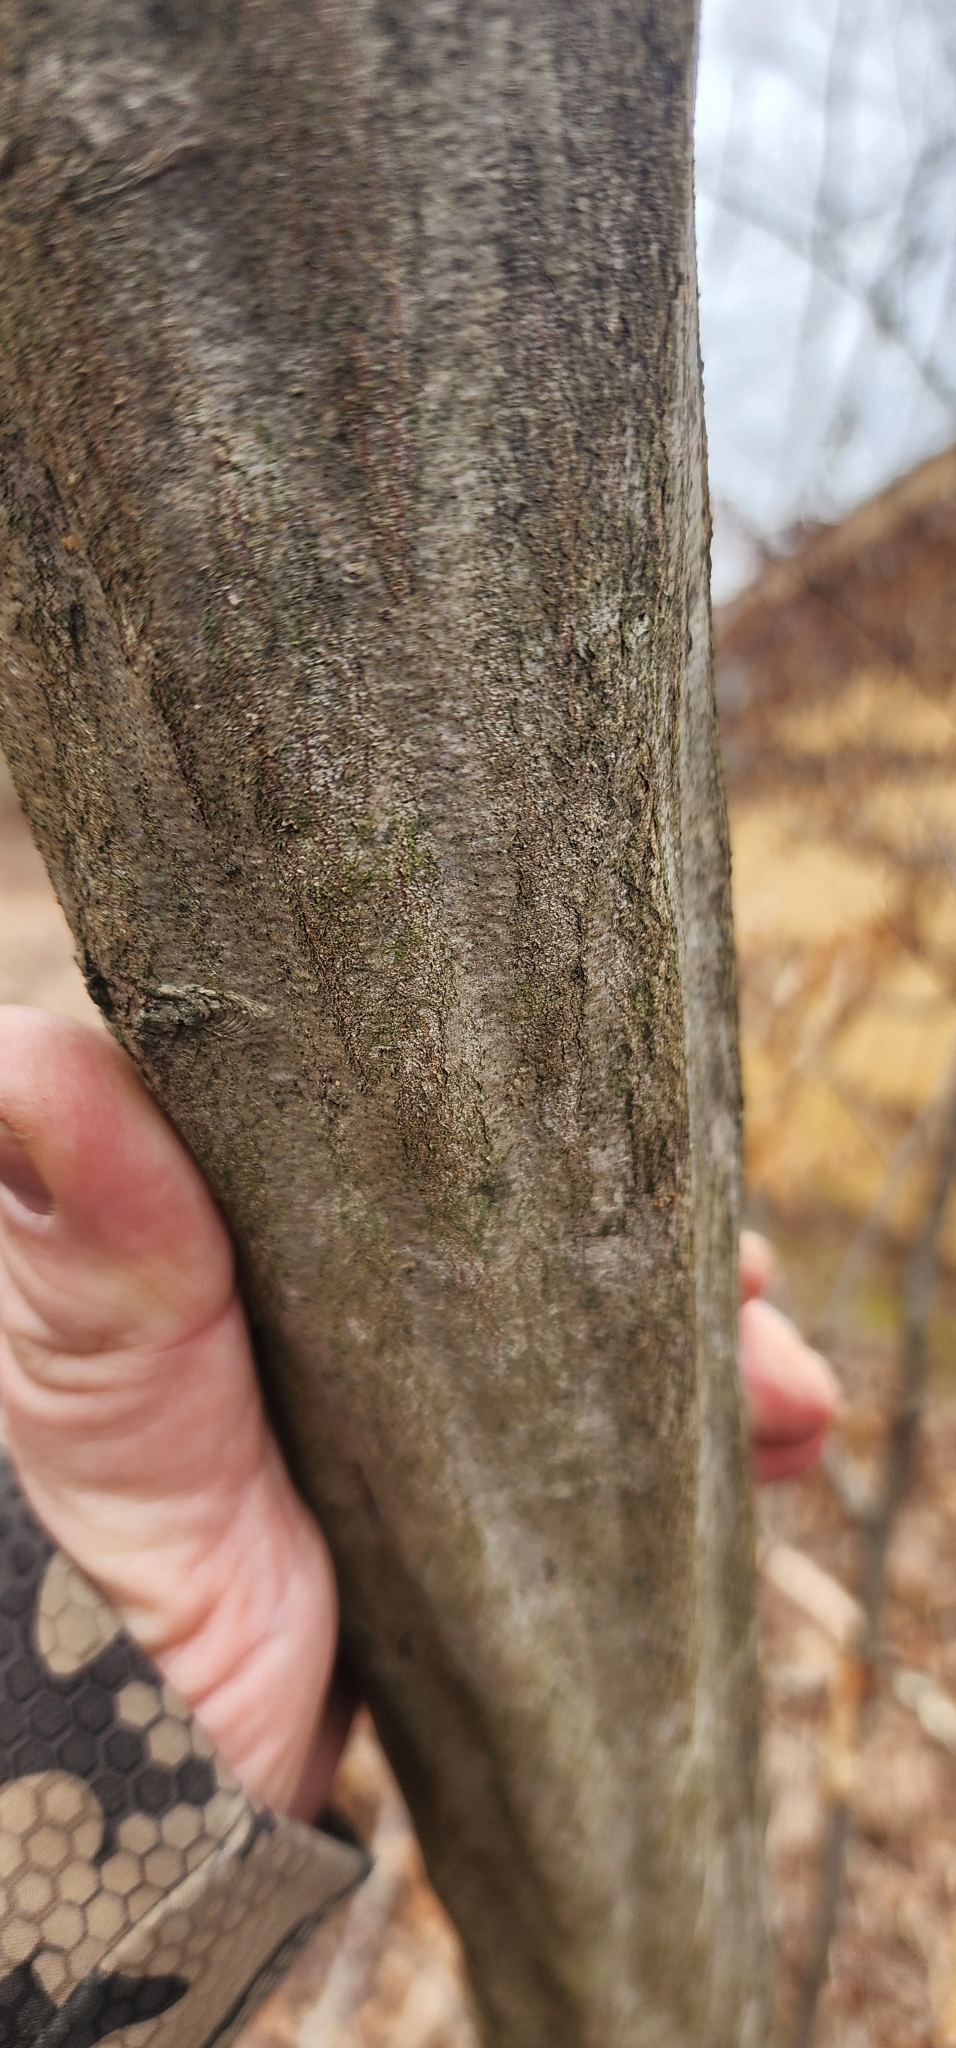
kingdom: Plantae
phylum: Tracheophyta
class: Magnoliopsida
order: Fagales
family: Betulaceae
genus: Carpinus
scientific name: Carpinus caroliniana
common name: American hornbeam
